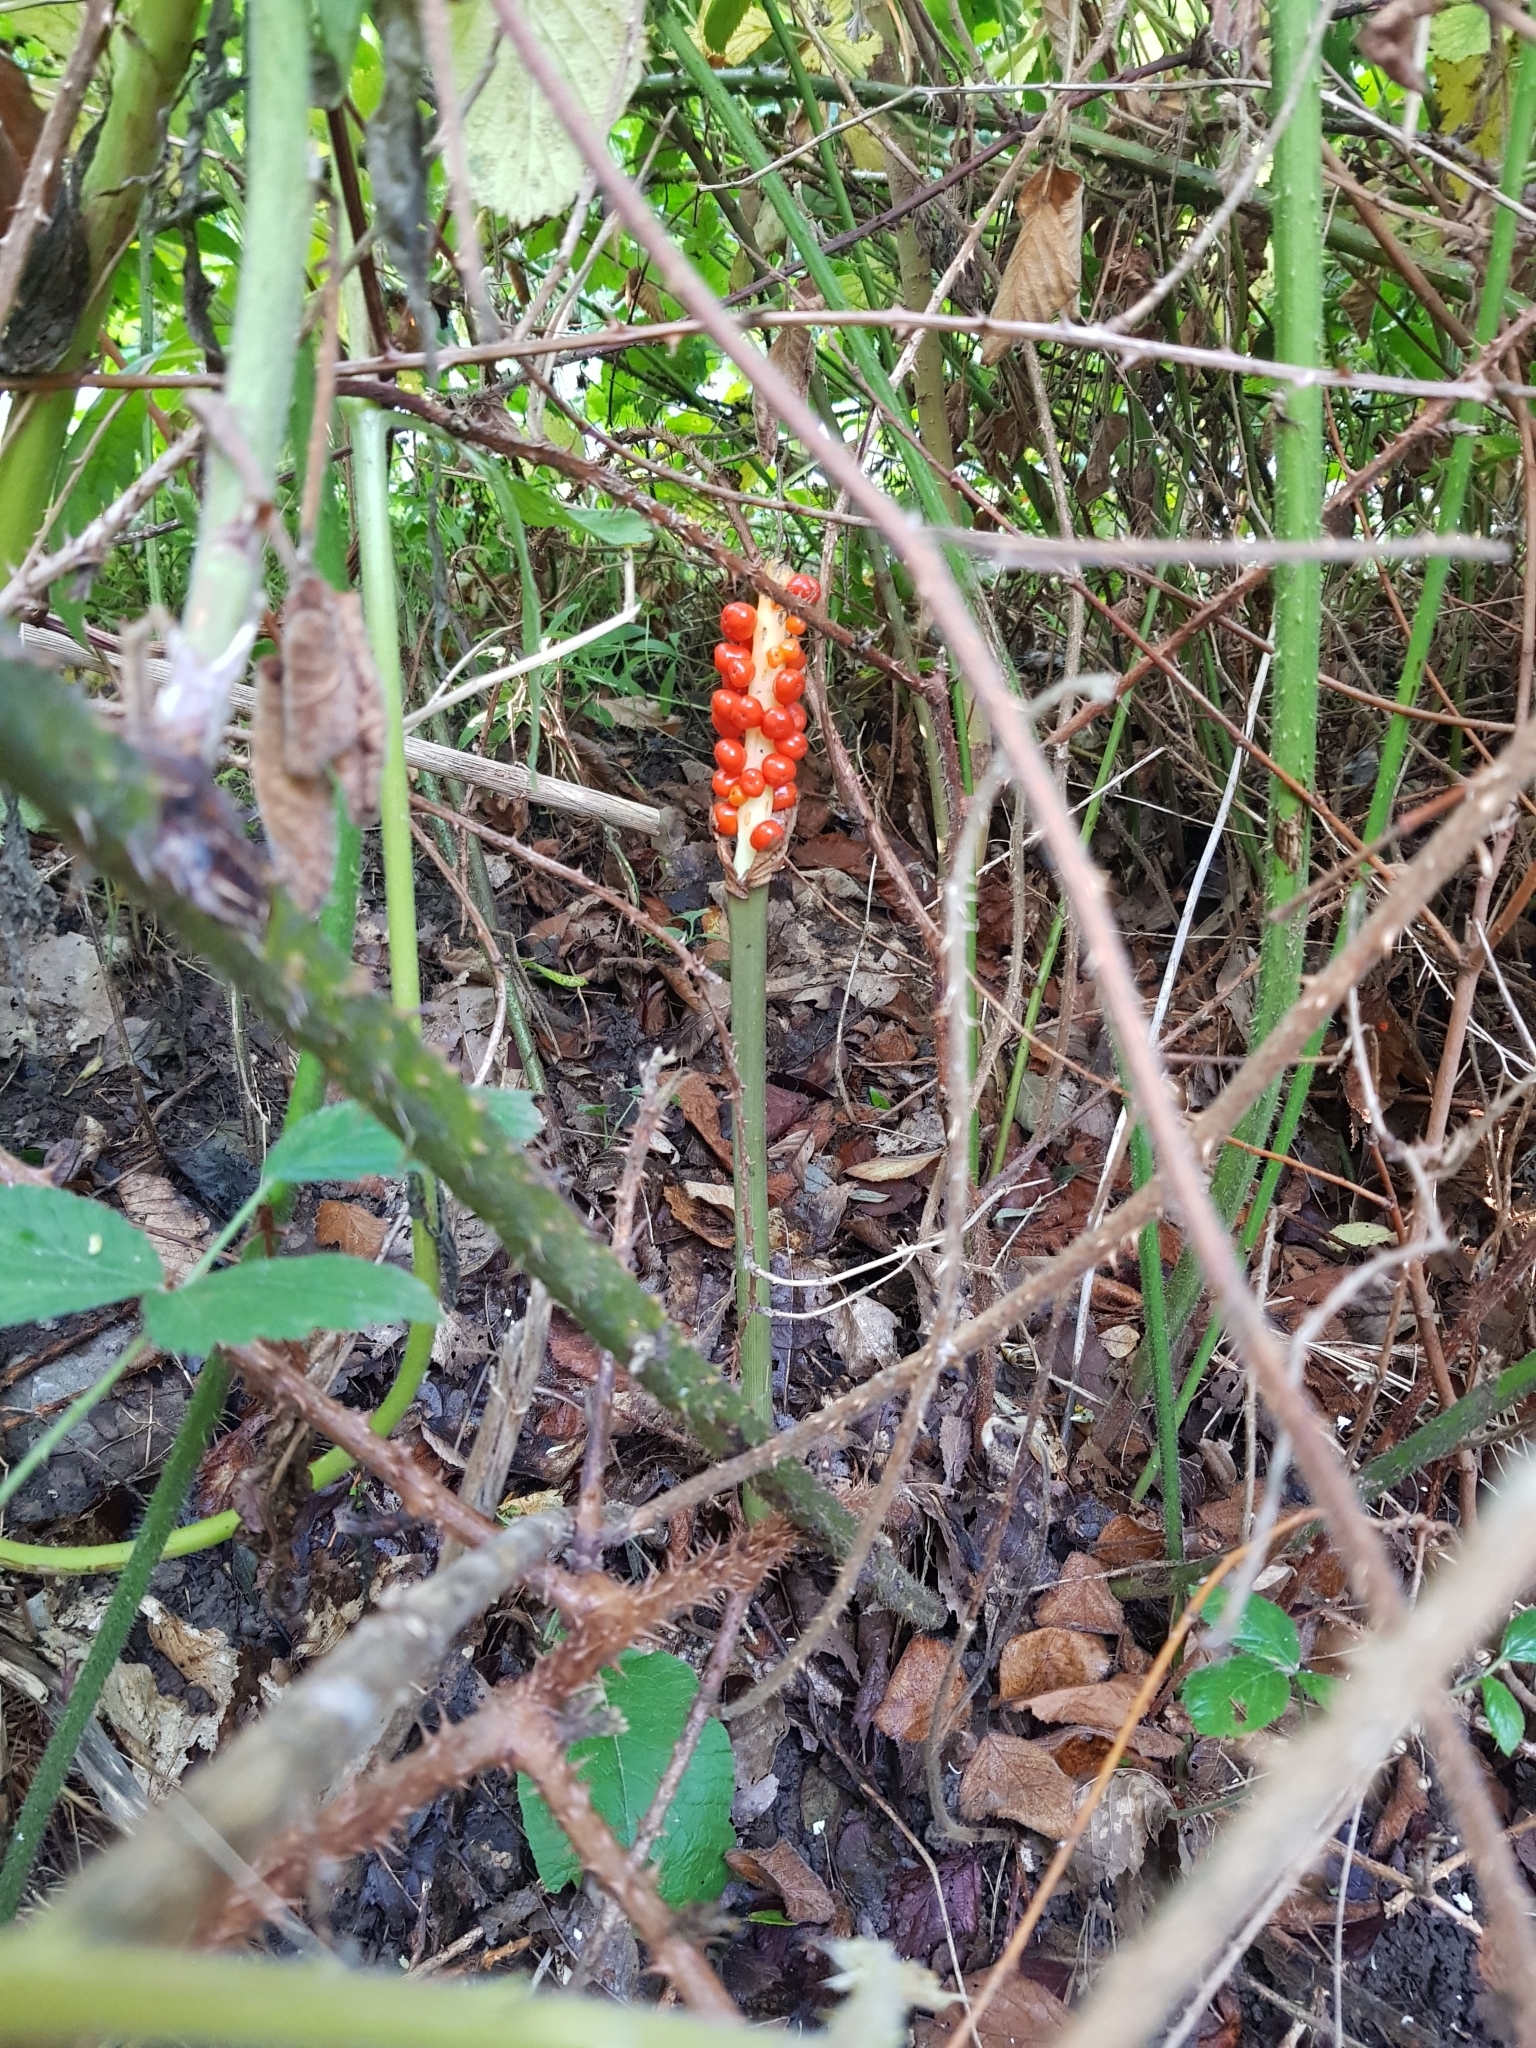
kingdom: Plantae
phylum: Tracheophyta
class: Liliopsida
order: Alismatales
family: Araceae
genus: Arum
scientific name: Arum maculatum
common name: Lords-and-ladies
